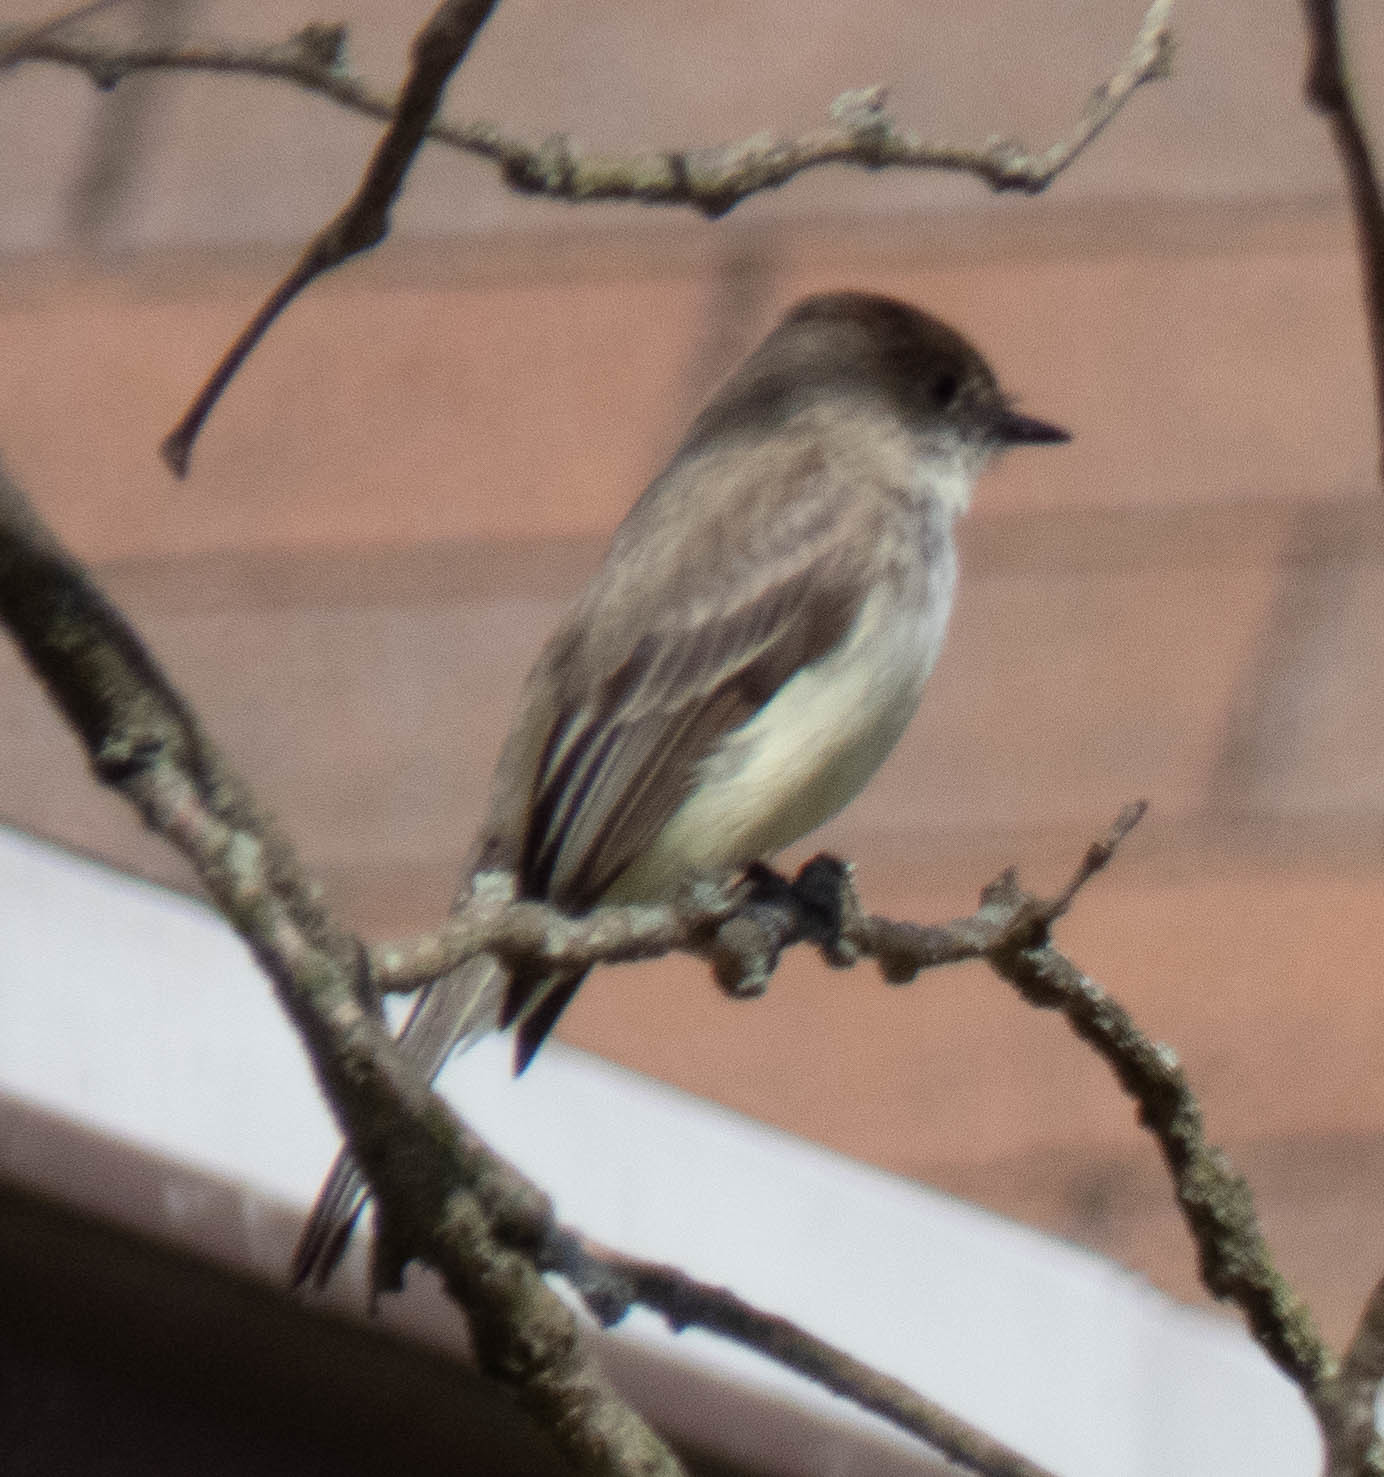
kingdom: Animalia
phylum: Chordata
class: Aves
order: Passeriformes
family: Tyrannidae
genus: Sayornis
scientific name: Sayornis phoebe
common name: Eastern phoebe
